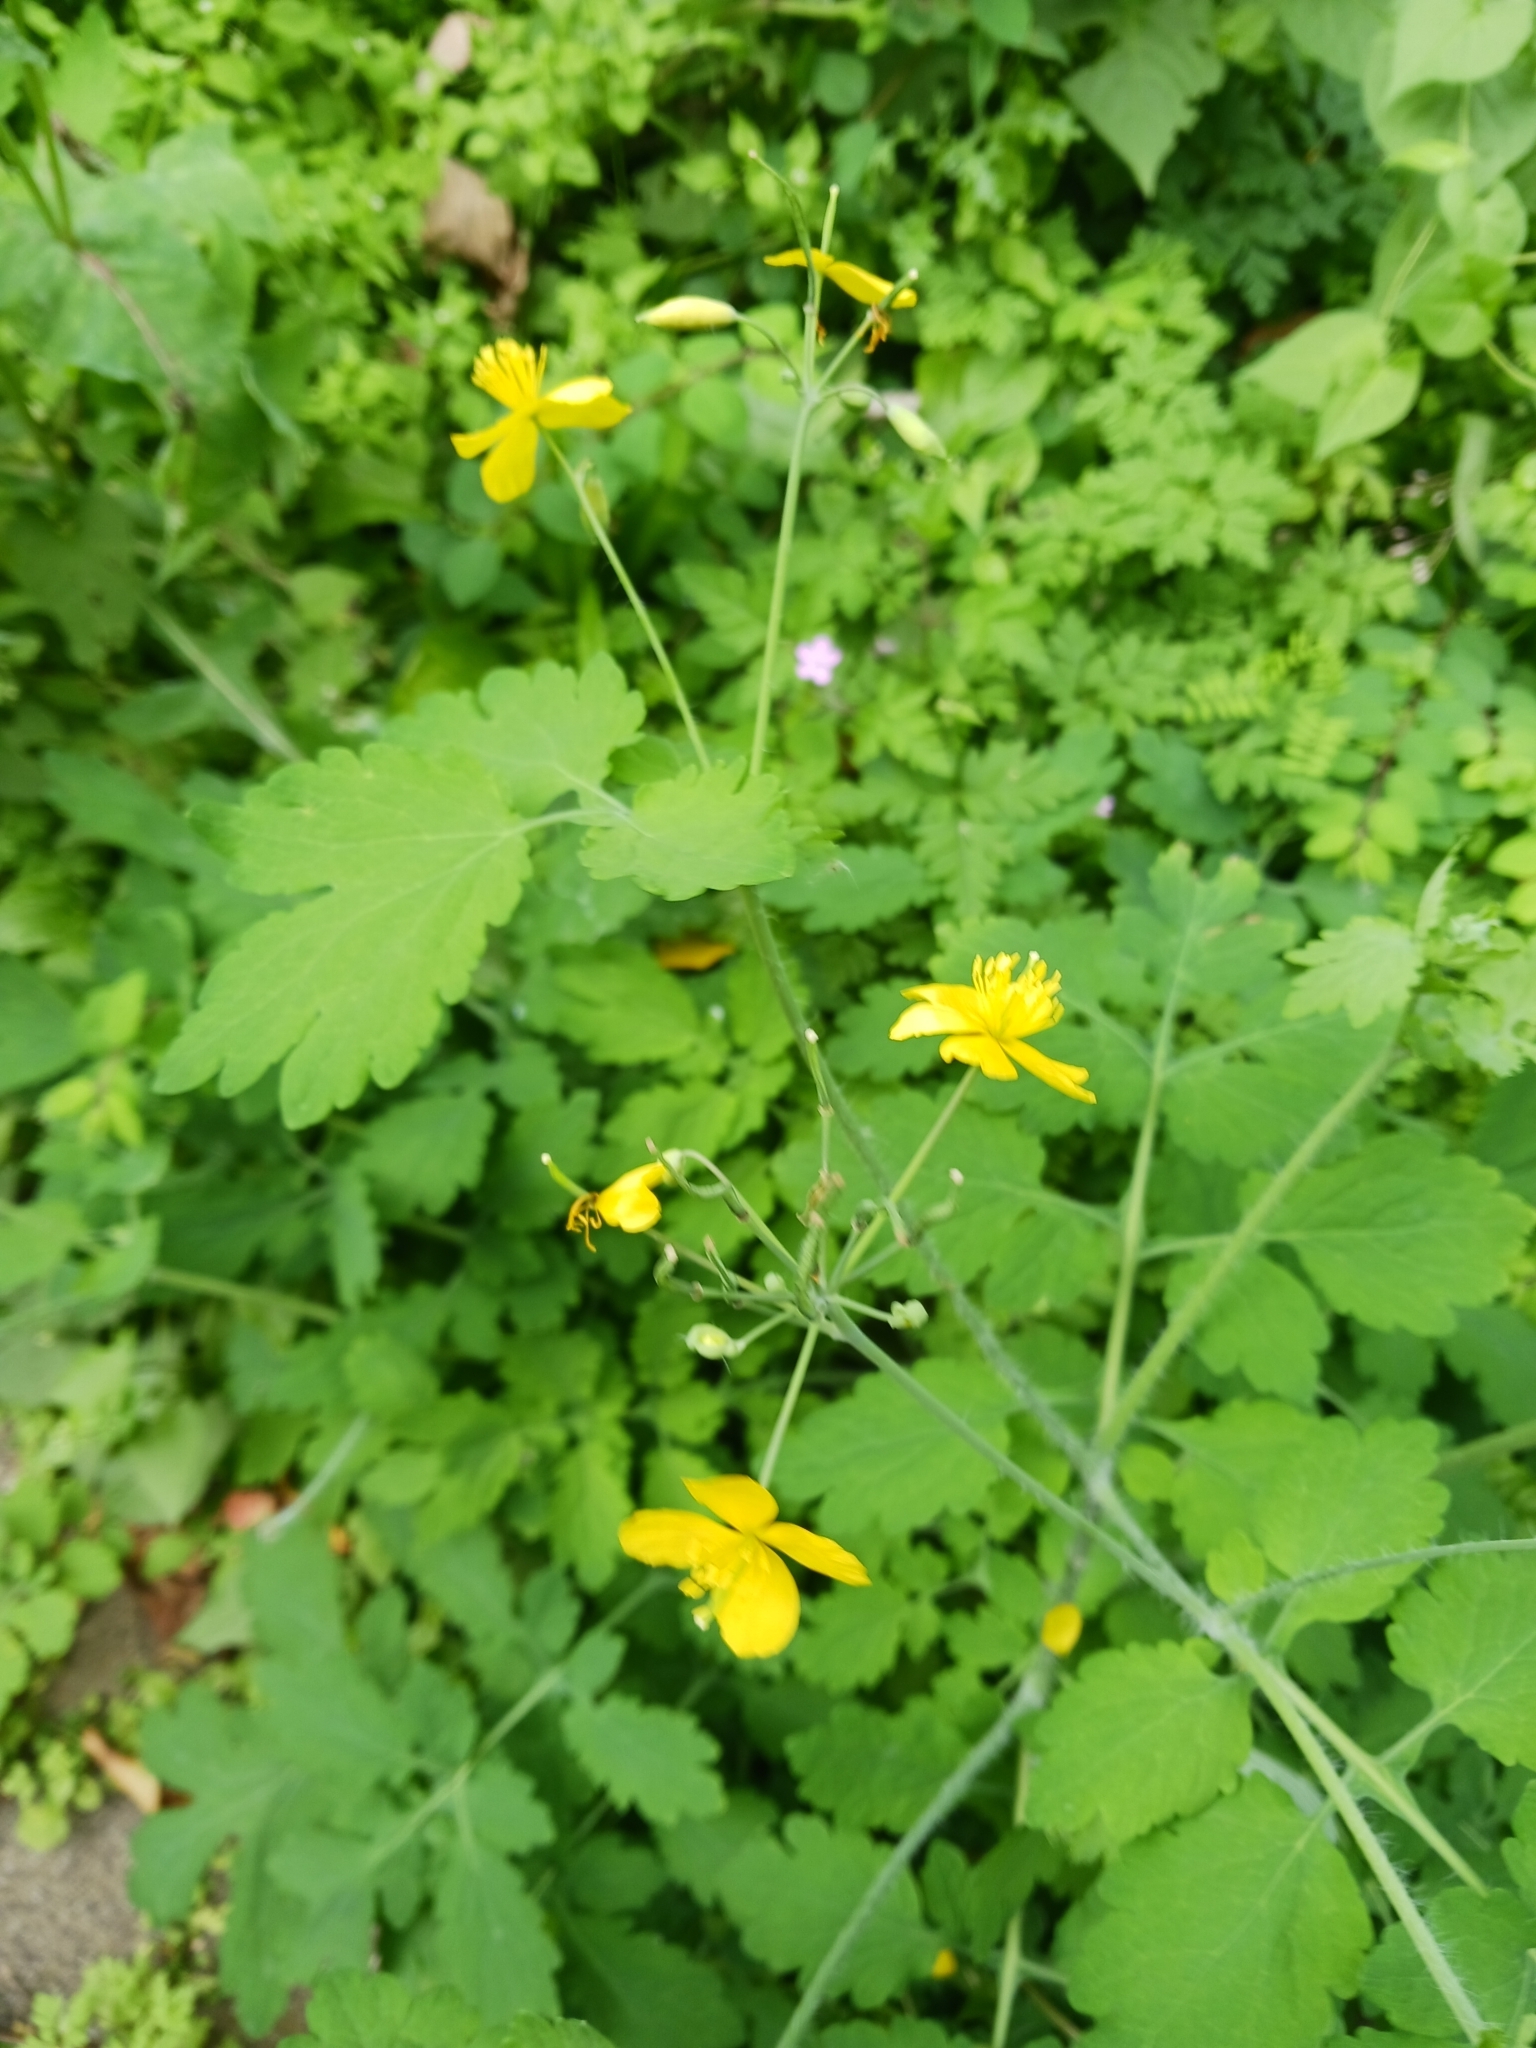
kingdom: Plantae
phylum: Tracheophyta
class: Magnoliopsida
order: Ranunculales
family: Papaveraceae
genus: Chelidonium
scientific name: Chelidonium majus
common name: Greater celandine
